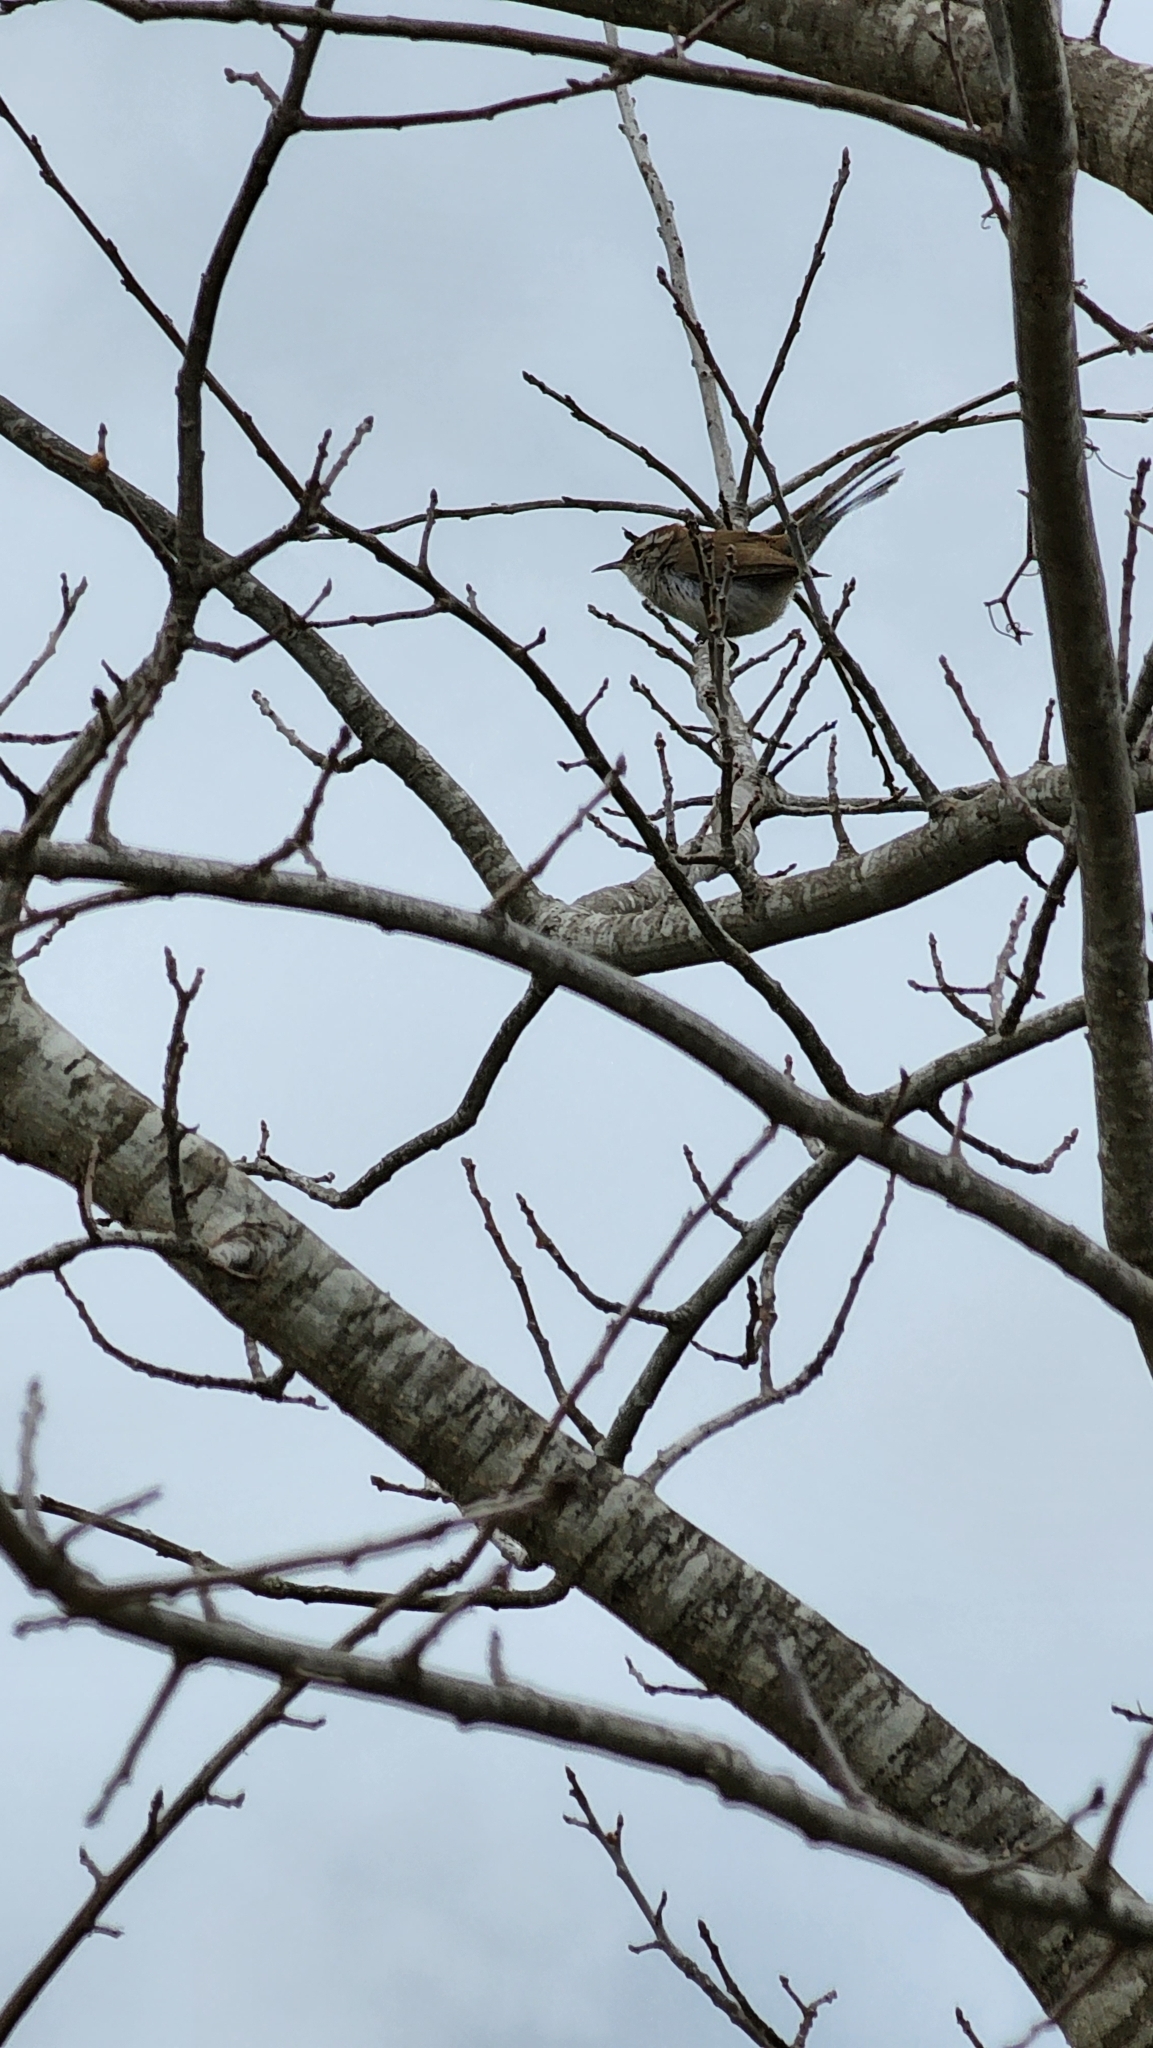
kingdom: Animalia
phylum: Chordata
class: Aves
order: Passeriformes
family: Troglodytidae
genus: Thryomanes
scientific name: Thryomanes bewickii
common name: Bewick's wren
